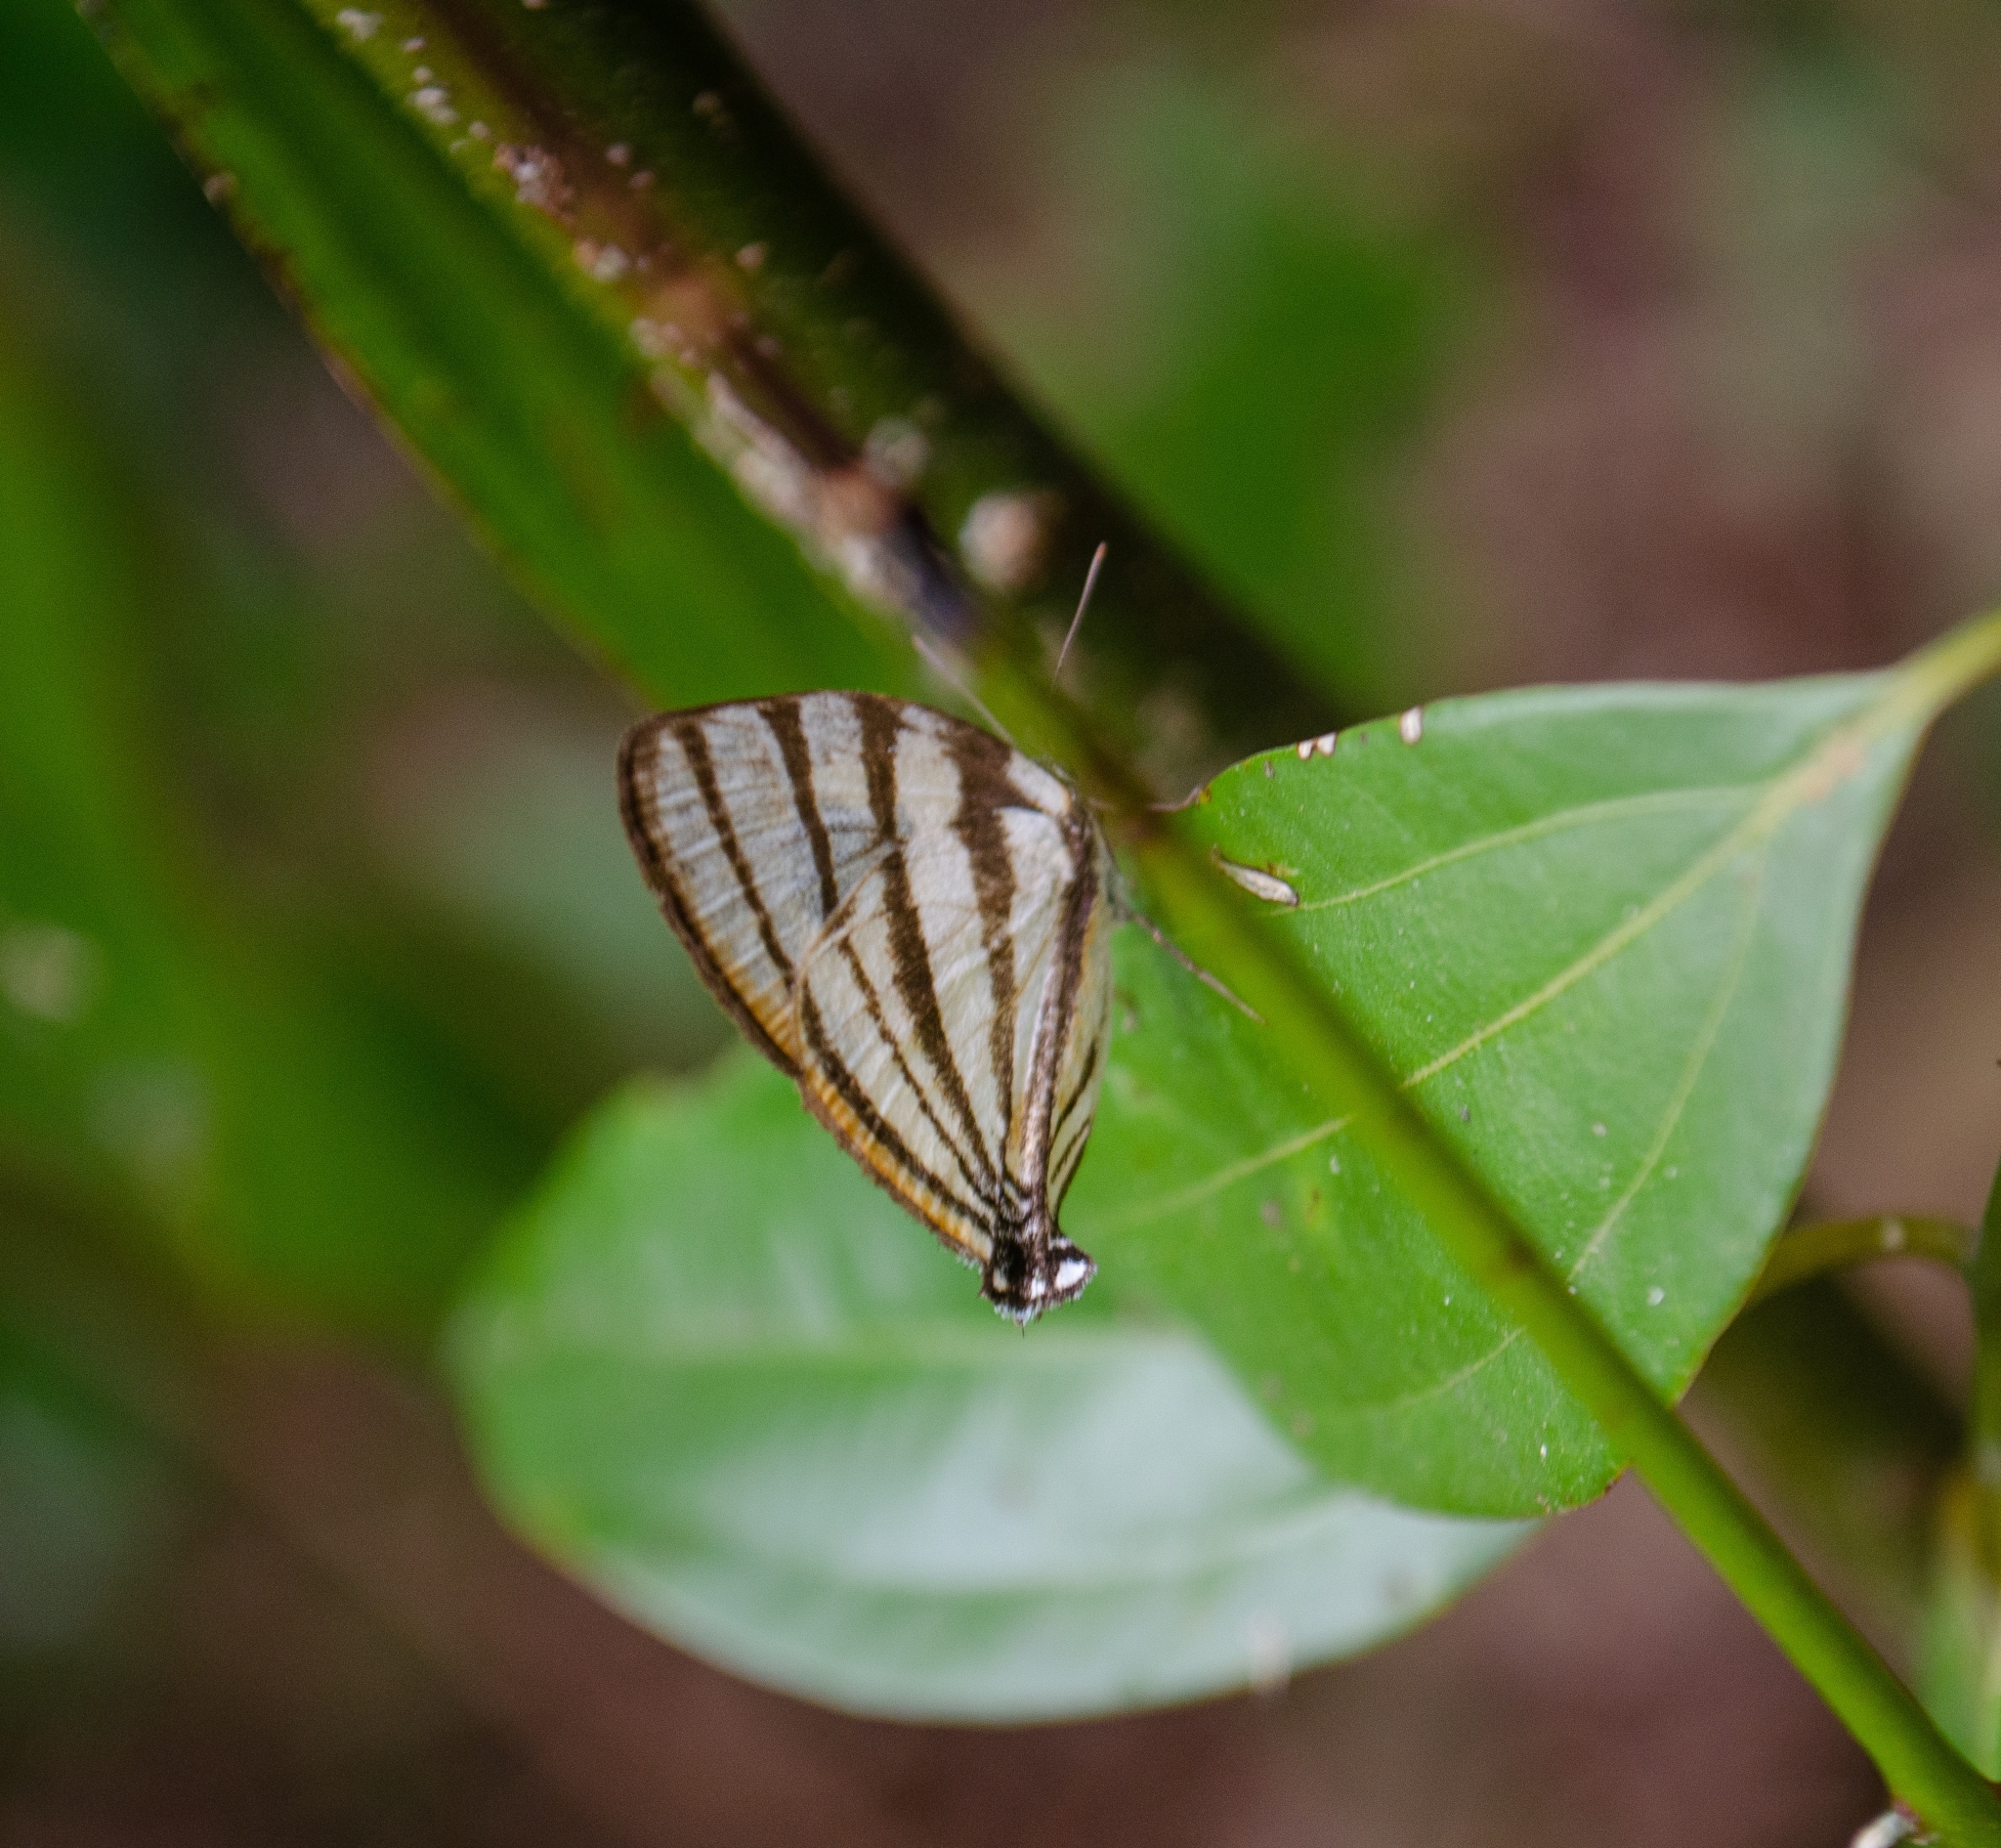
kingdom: Animalia
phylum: Arthropoda
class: Insecta
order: Lepidoptera
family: Lycaenidae
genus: Arawacus
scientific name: Arawacus separata
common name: Separated stripestreak
